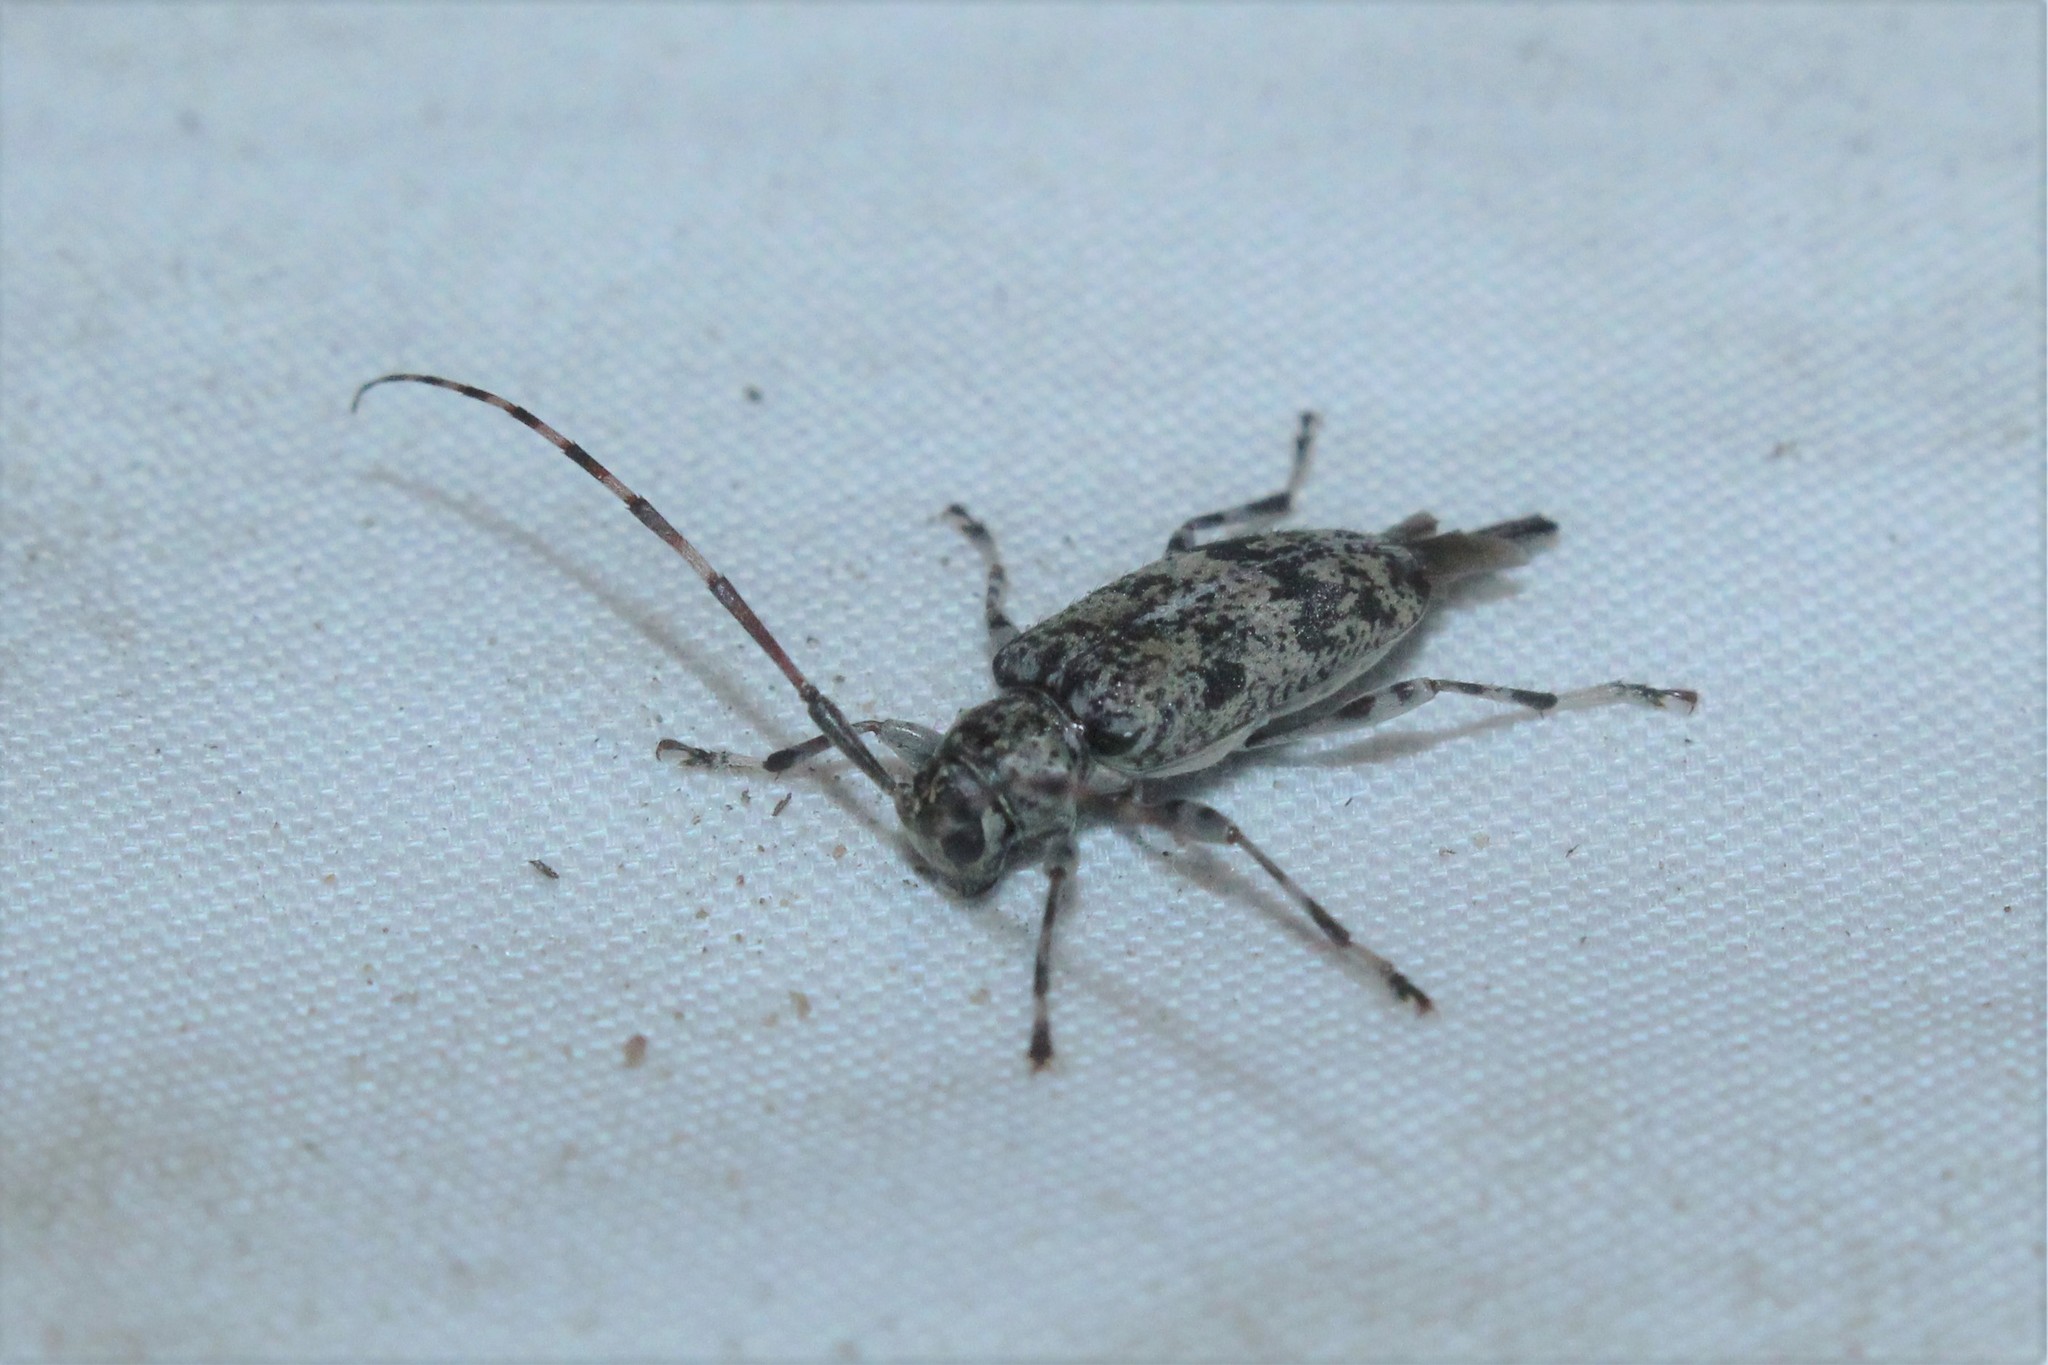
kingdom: Animalia
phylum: Arthropoda
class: Insecta
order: Coleoptera
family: Cerambycidae
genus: Graphisurus
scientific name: Graphisurus fasciatus
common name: Banded graphisurus
